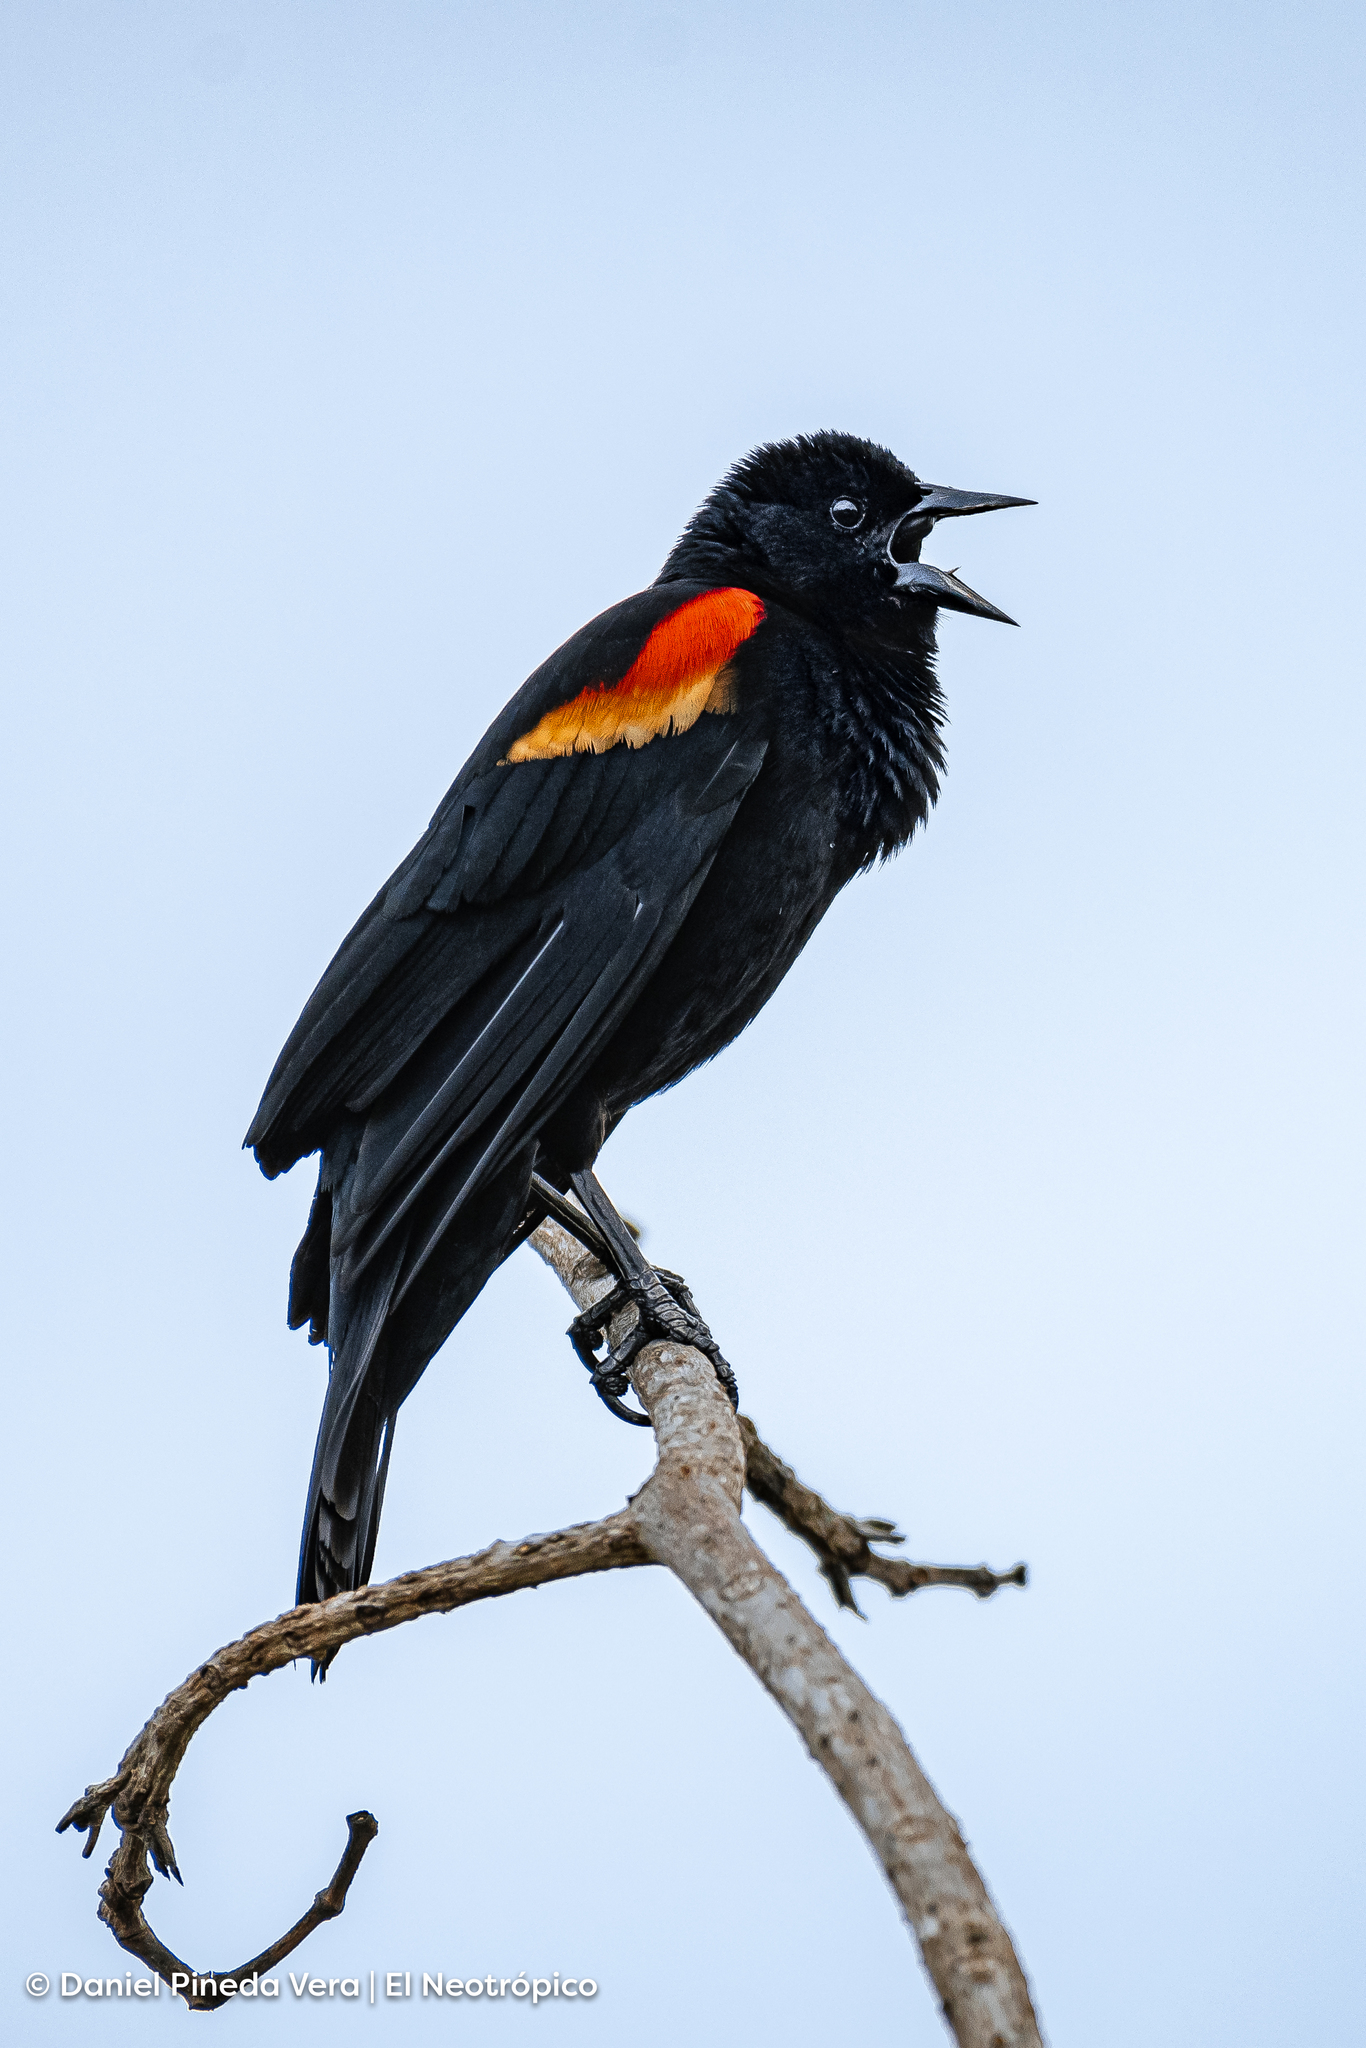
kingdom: Animalia
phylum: Chordata
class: Aves
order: Passeriformes
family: Icteridae
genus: Agelaius
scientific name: Agelaius phoeniceus
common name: Red-winged blackbird
